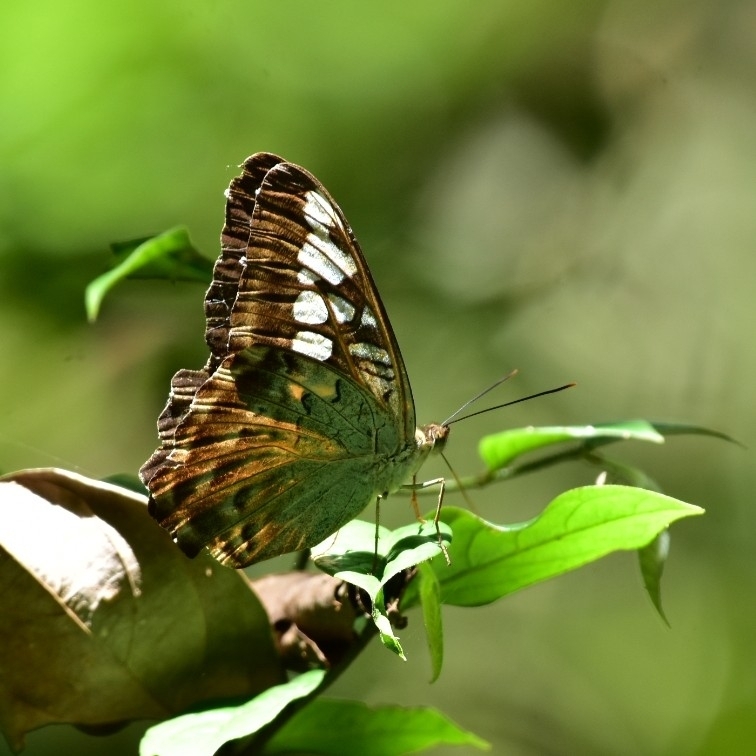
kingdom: Animalia
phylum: Arthropoda
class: Insecta
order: Lepidoptera
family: Nymphalidae
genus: Kallima
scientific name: Kallima sylvia
